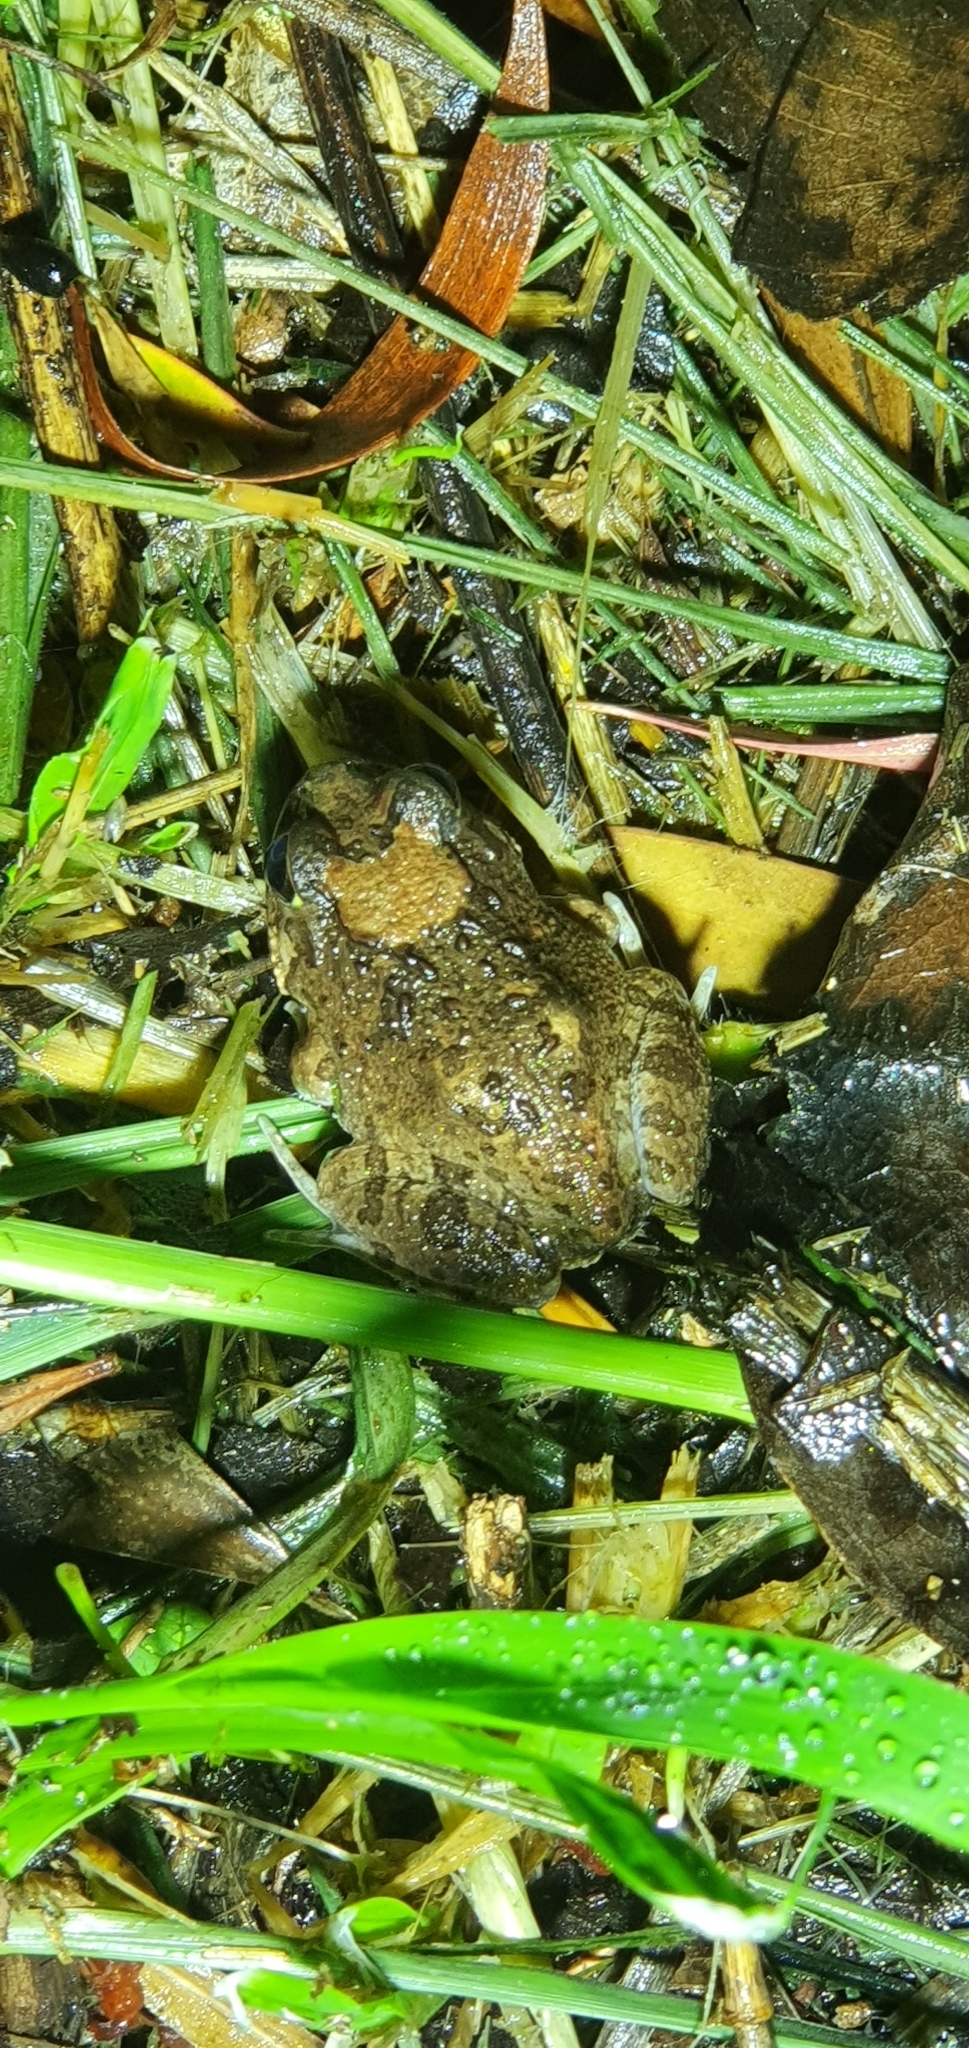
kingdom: Animalia
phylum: Chordata
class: Amphibia
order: Anura
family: Limnodynastidae
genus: Platyplectrum
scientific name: Platyplectrum ornatum
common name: Ornate burrowing frog
